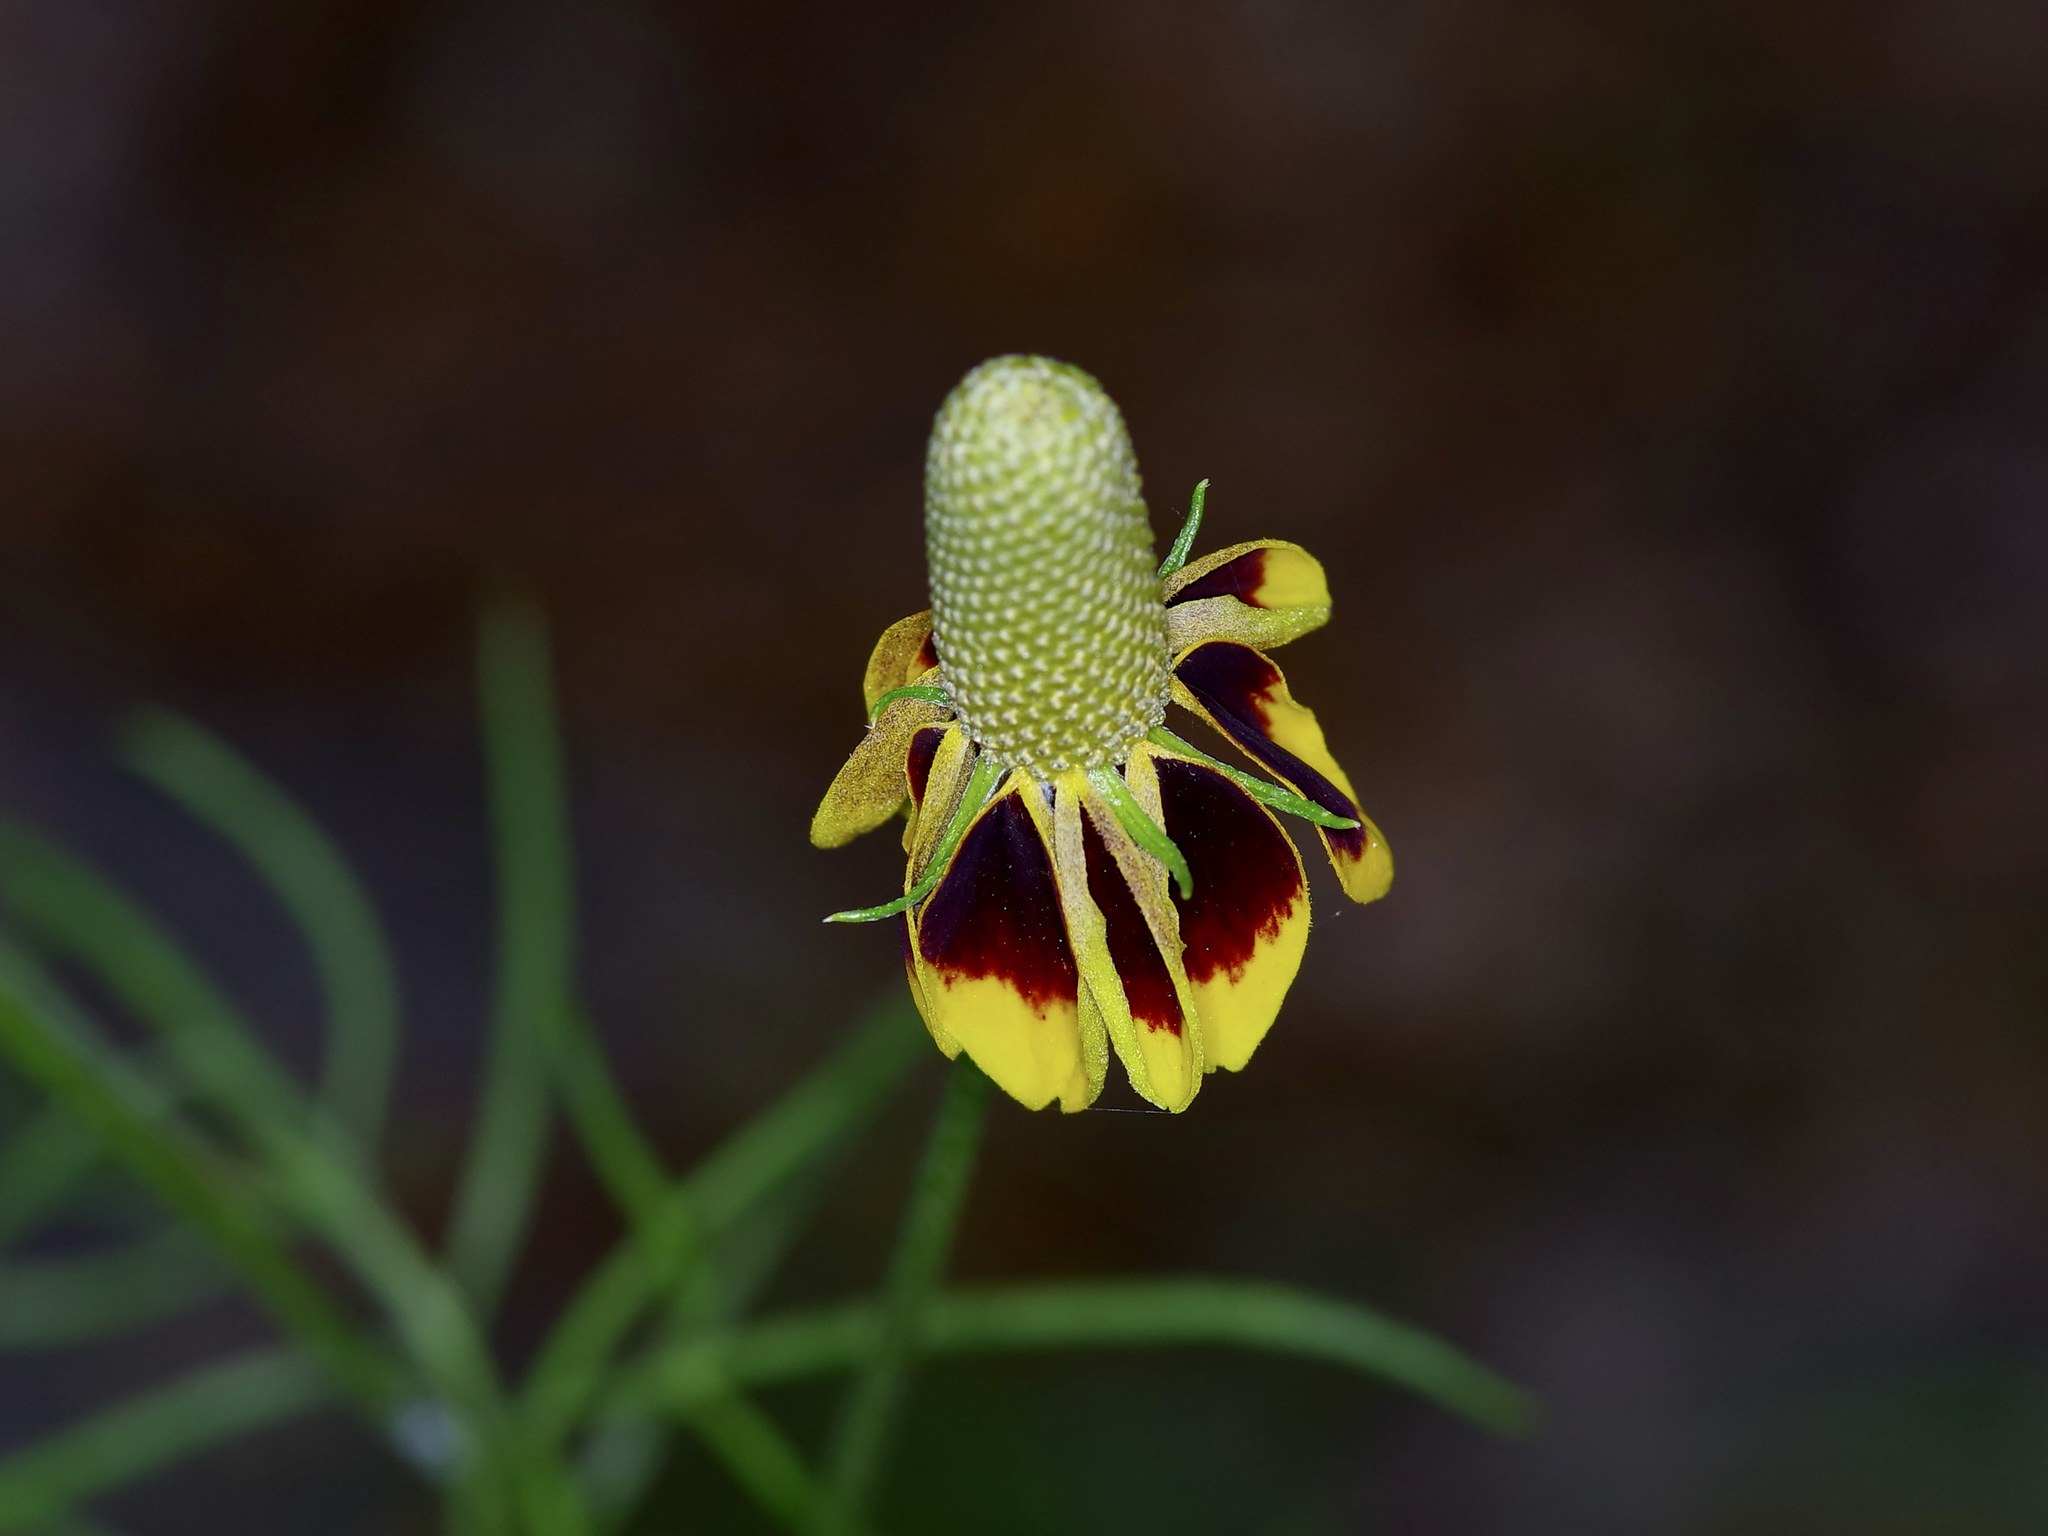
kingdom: Plantae
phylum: Tracheophyta
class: Magnoliopsida
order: Asterales
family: Asteraceae
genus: Ratibida
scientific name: Ratibida columnifera
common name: Prairie coneflower
